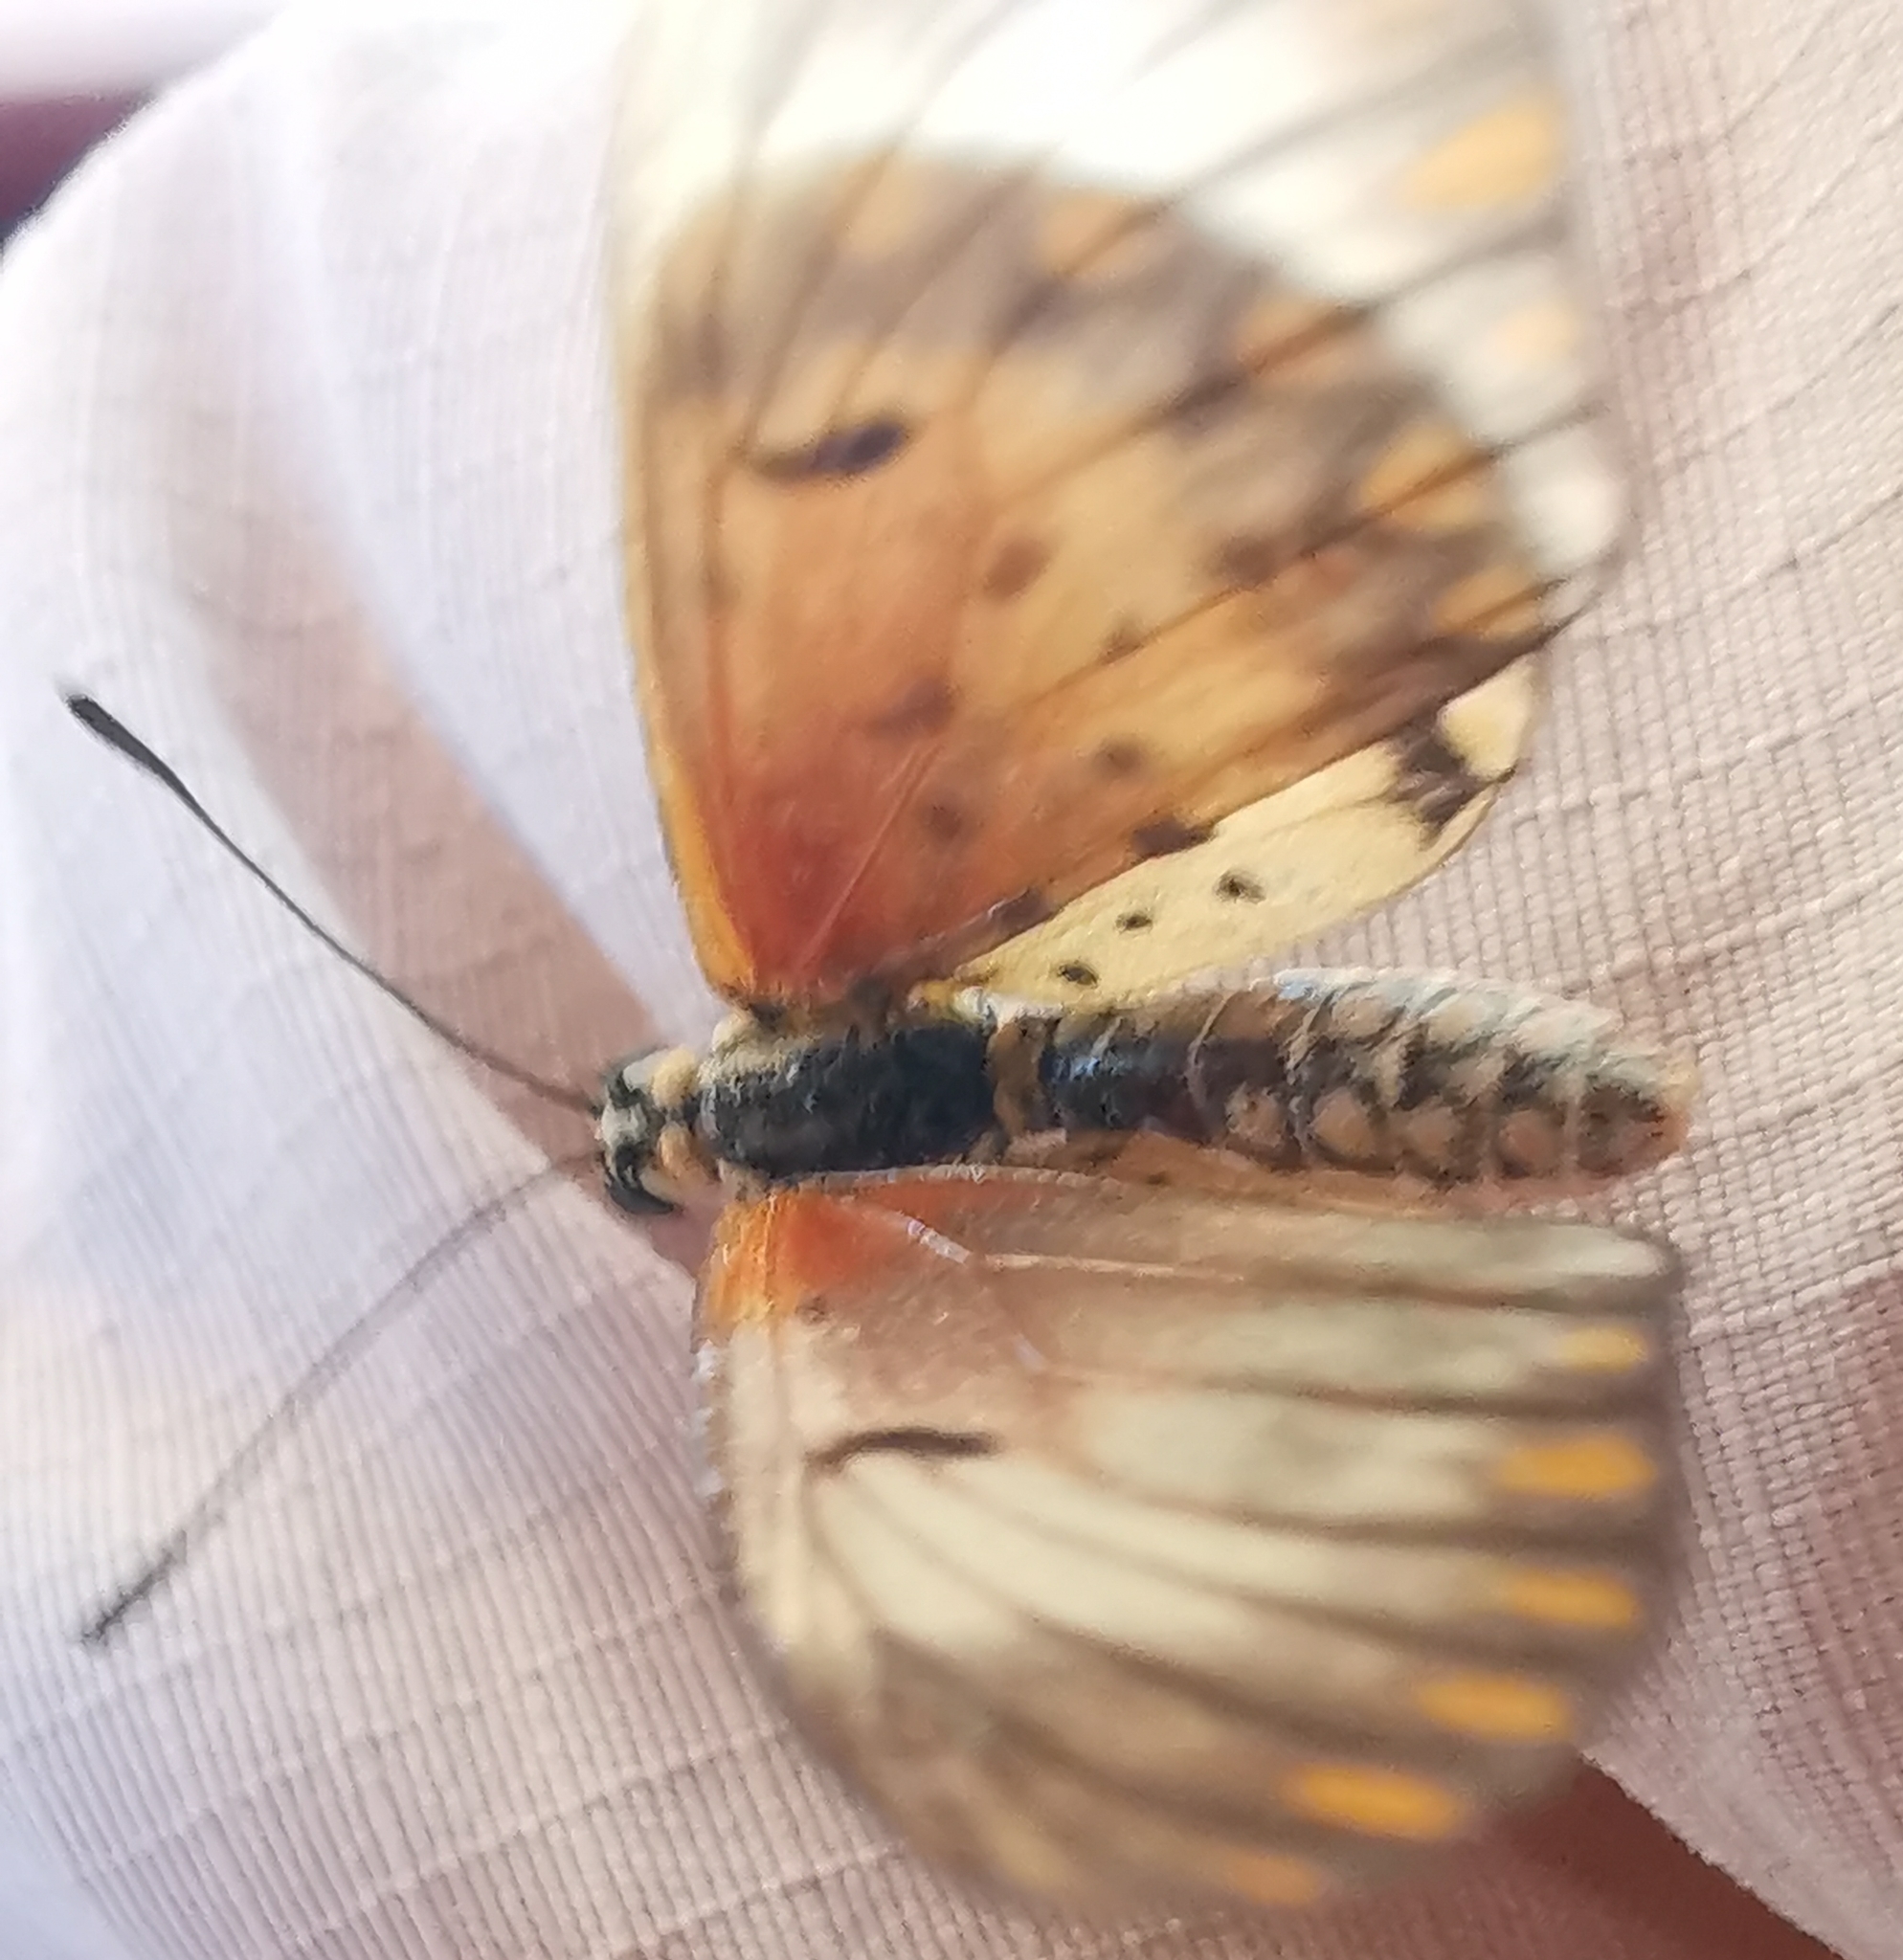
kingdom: Animalia
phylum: Arthropoda
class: Insecta
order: Lepidoptera
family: Nymphalidae
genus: Acraea
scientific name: Acraea Telchinia serena
